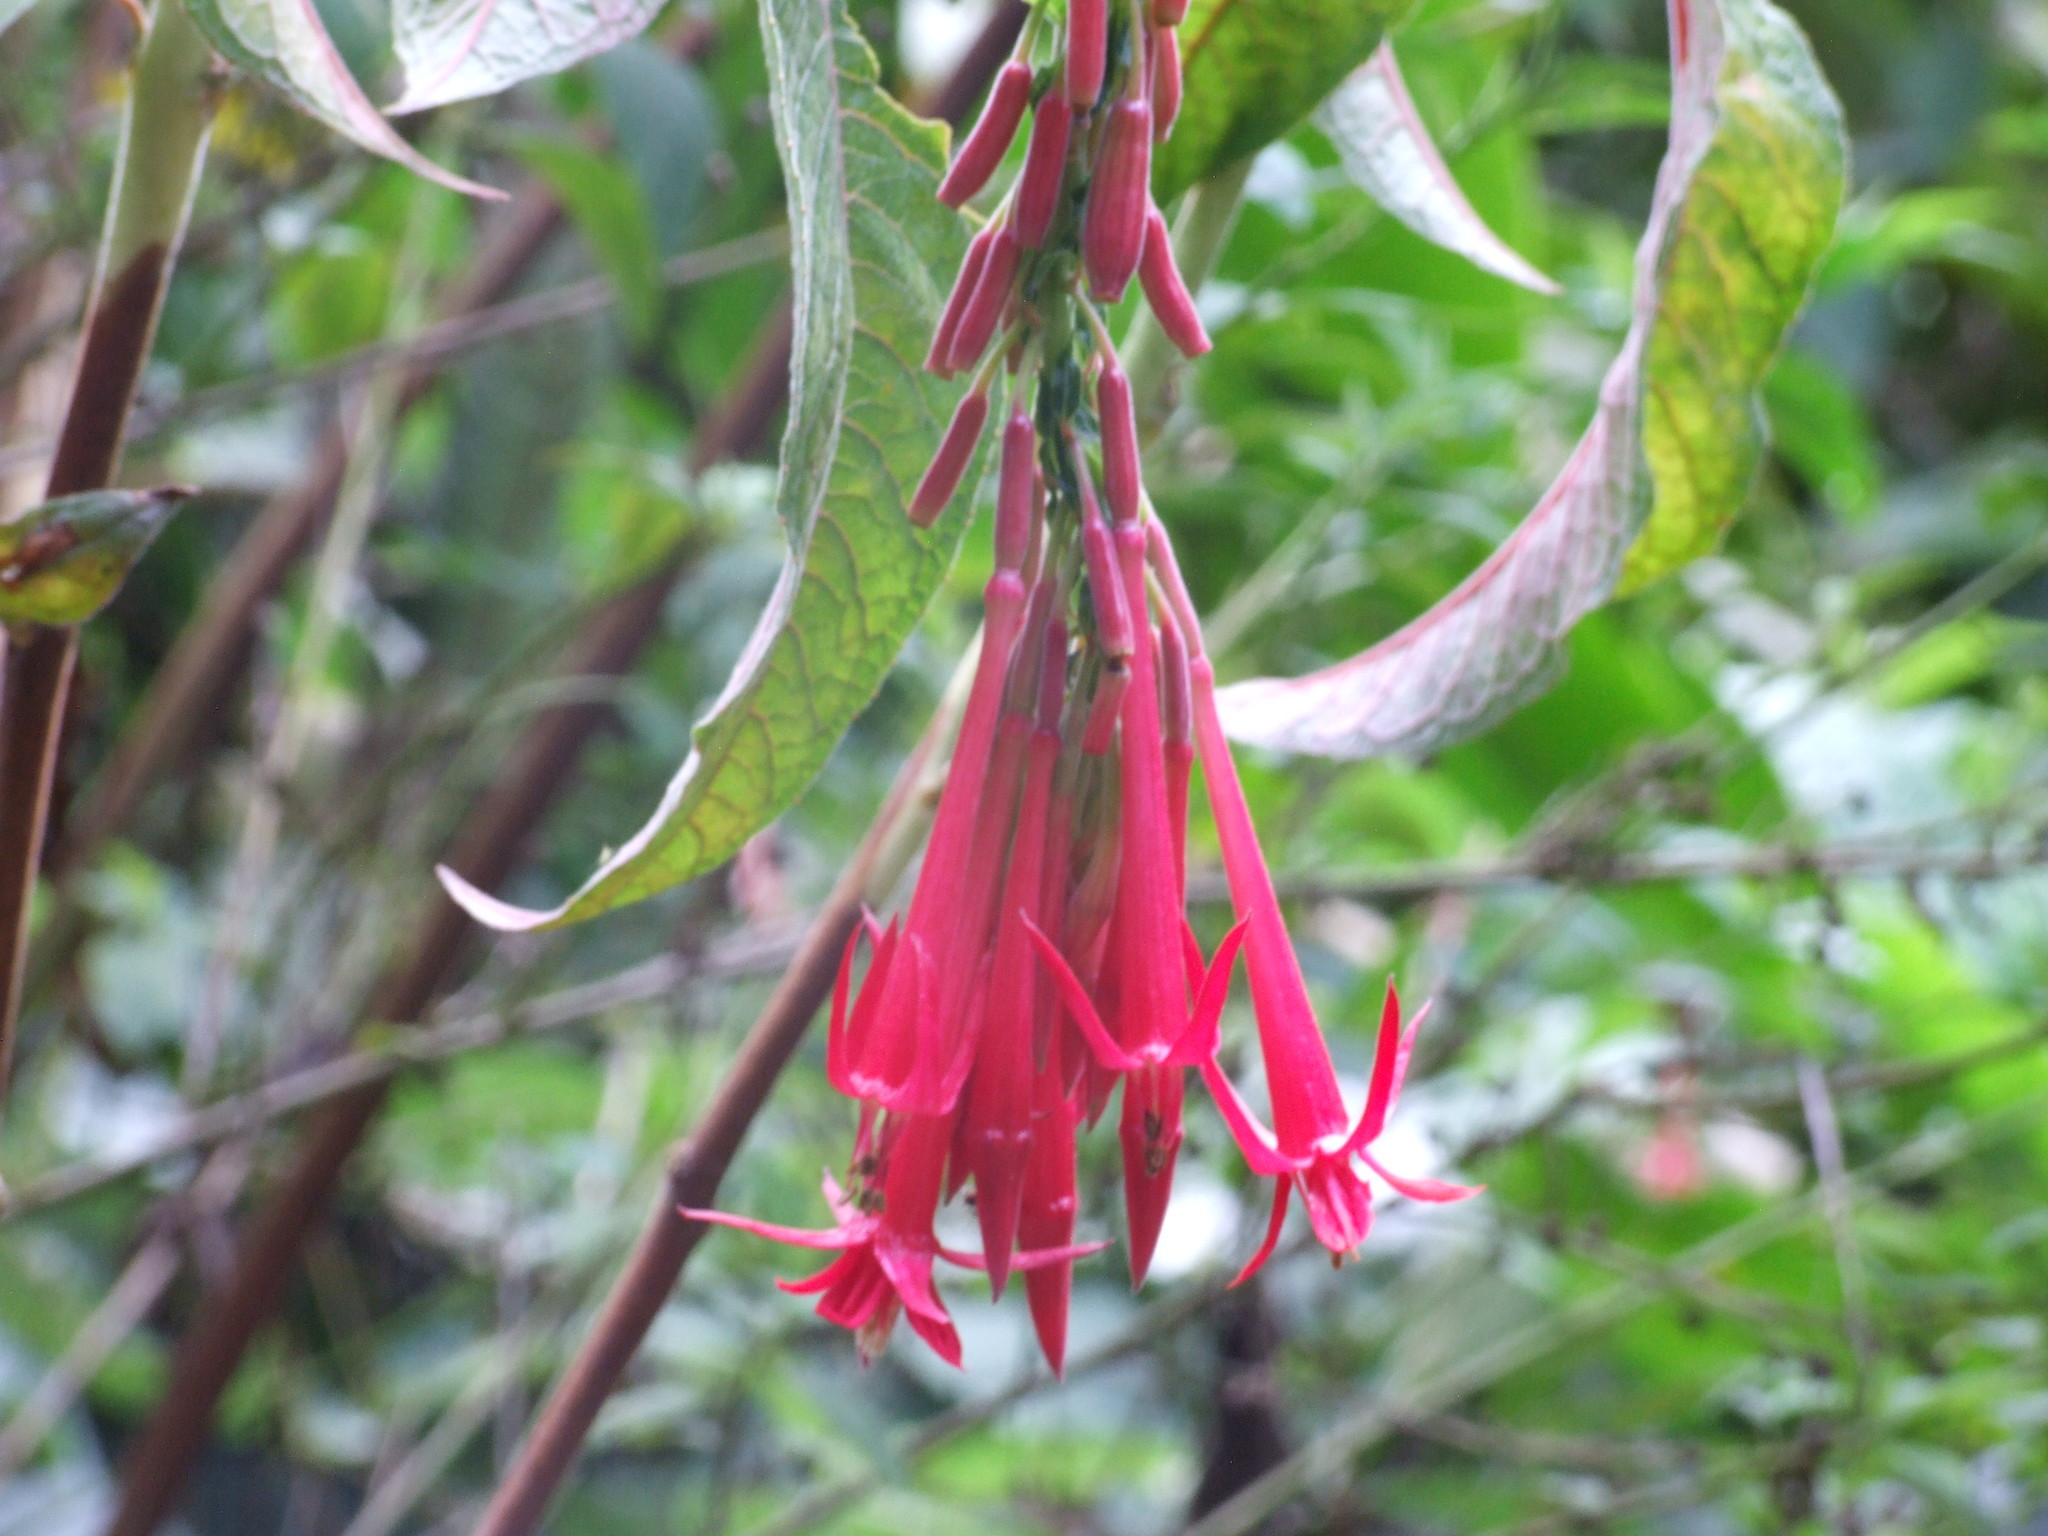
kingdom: Plantae
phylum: Tracheophyta
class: Magnoliopsida
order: Myrtales
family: Onagraceae
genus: Fuchsia
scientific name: Fuchsia boliviana
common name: Bolivian fuchsia
